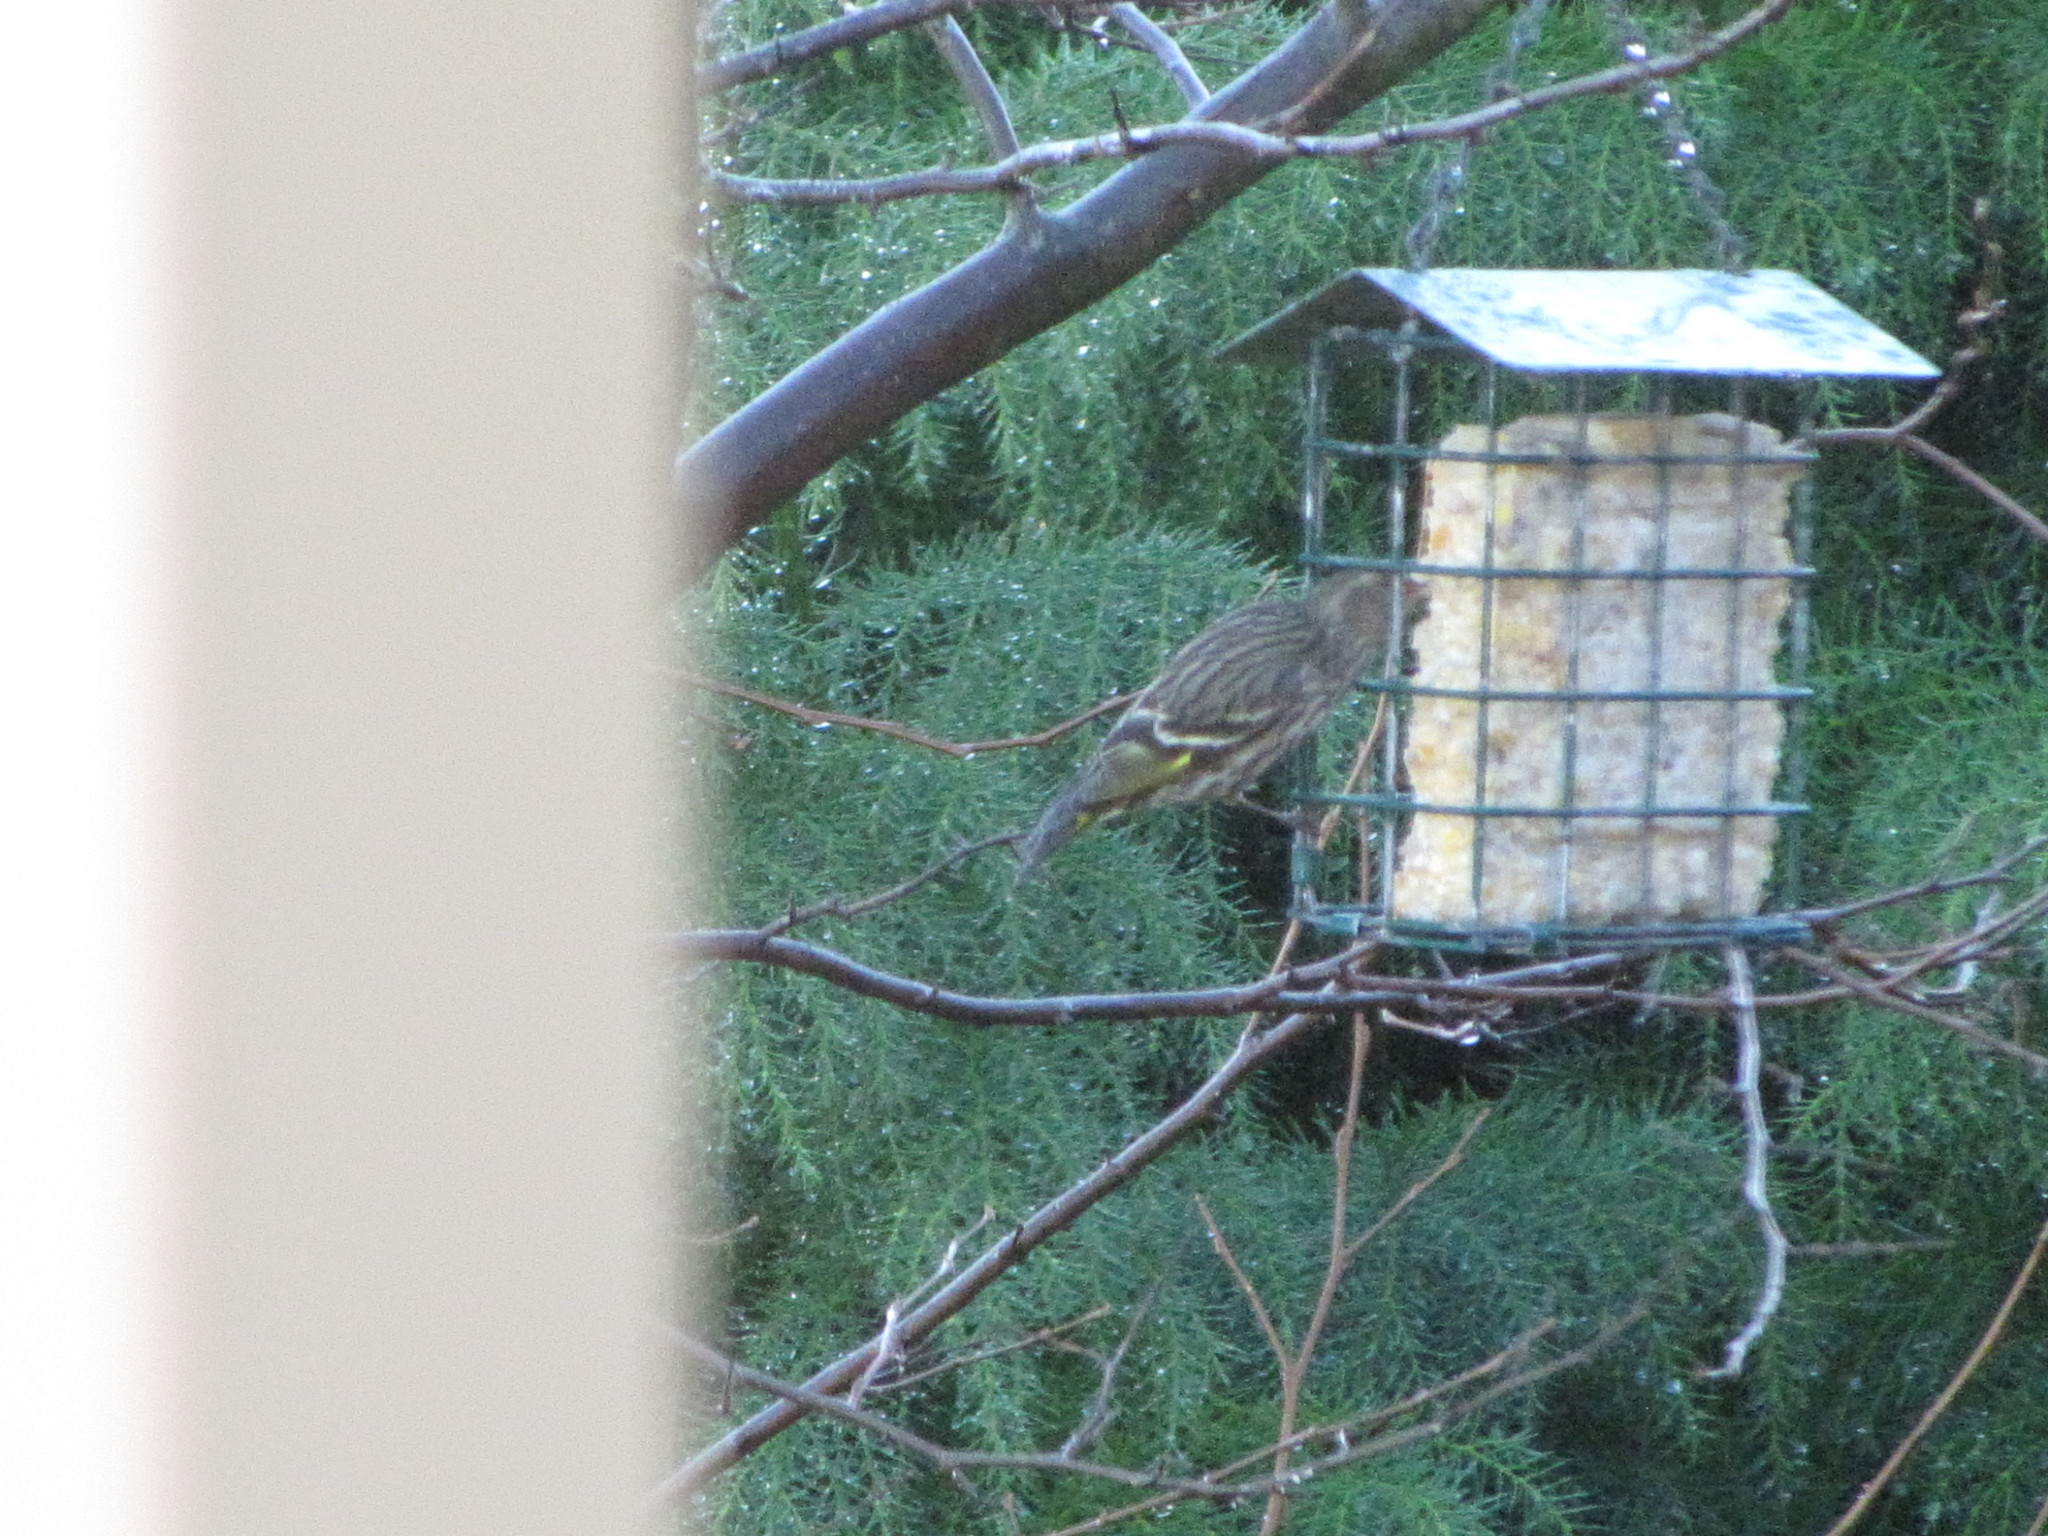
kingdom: Animalia
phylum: Chordata
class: Aves
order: Passeriformes
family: Fringillidae
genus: Spinus
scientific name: Spinus pinus
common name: Pine siskin
